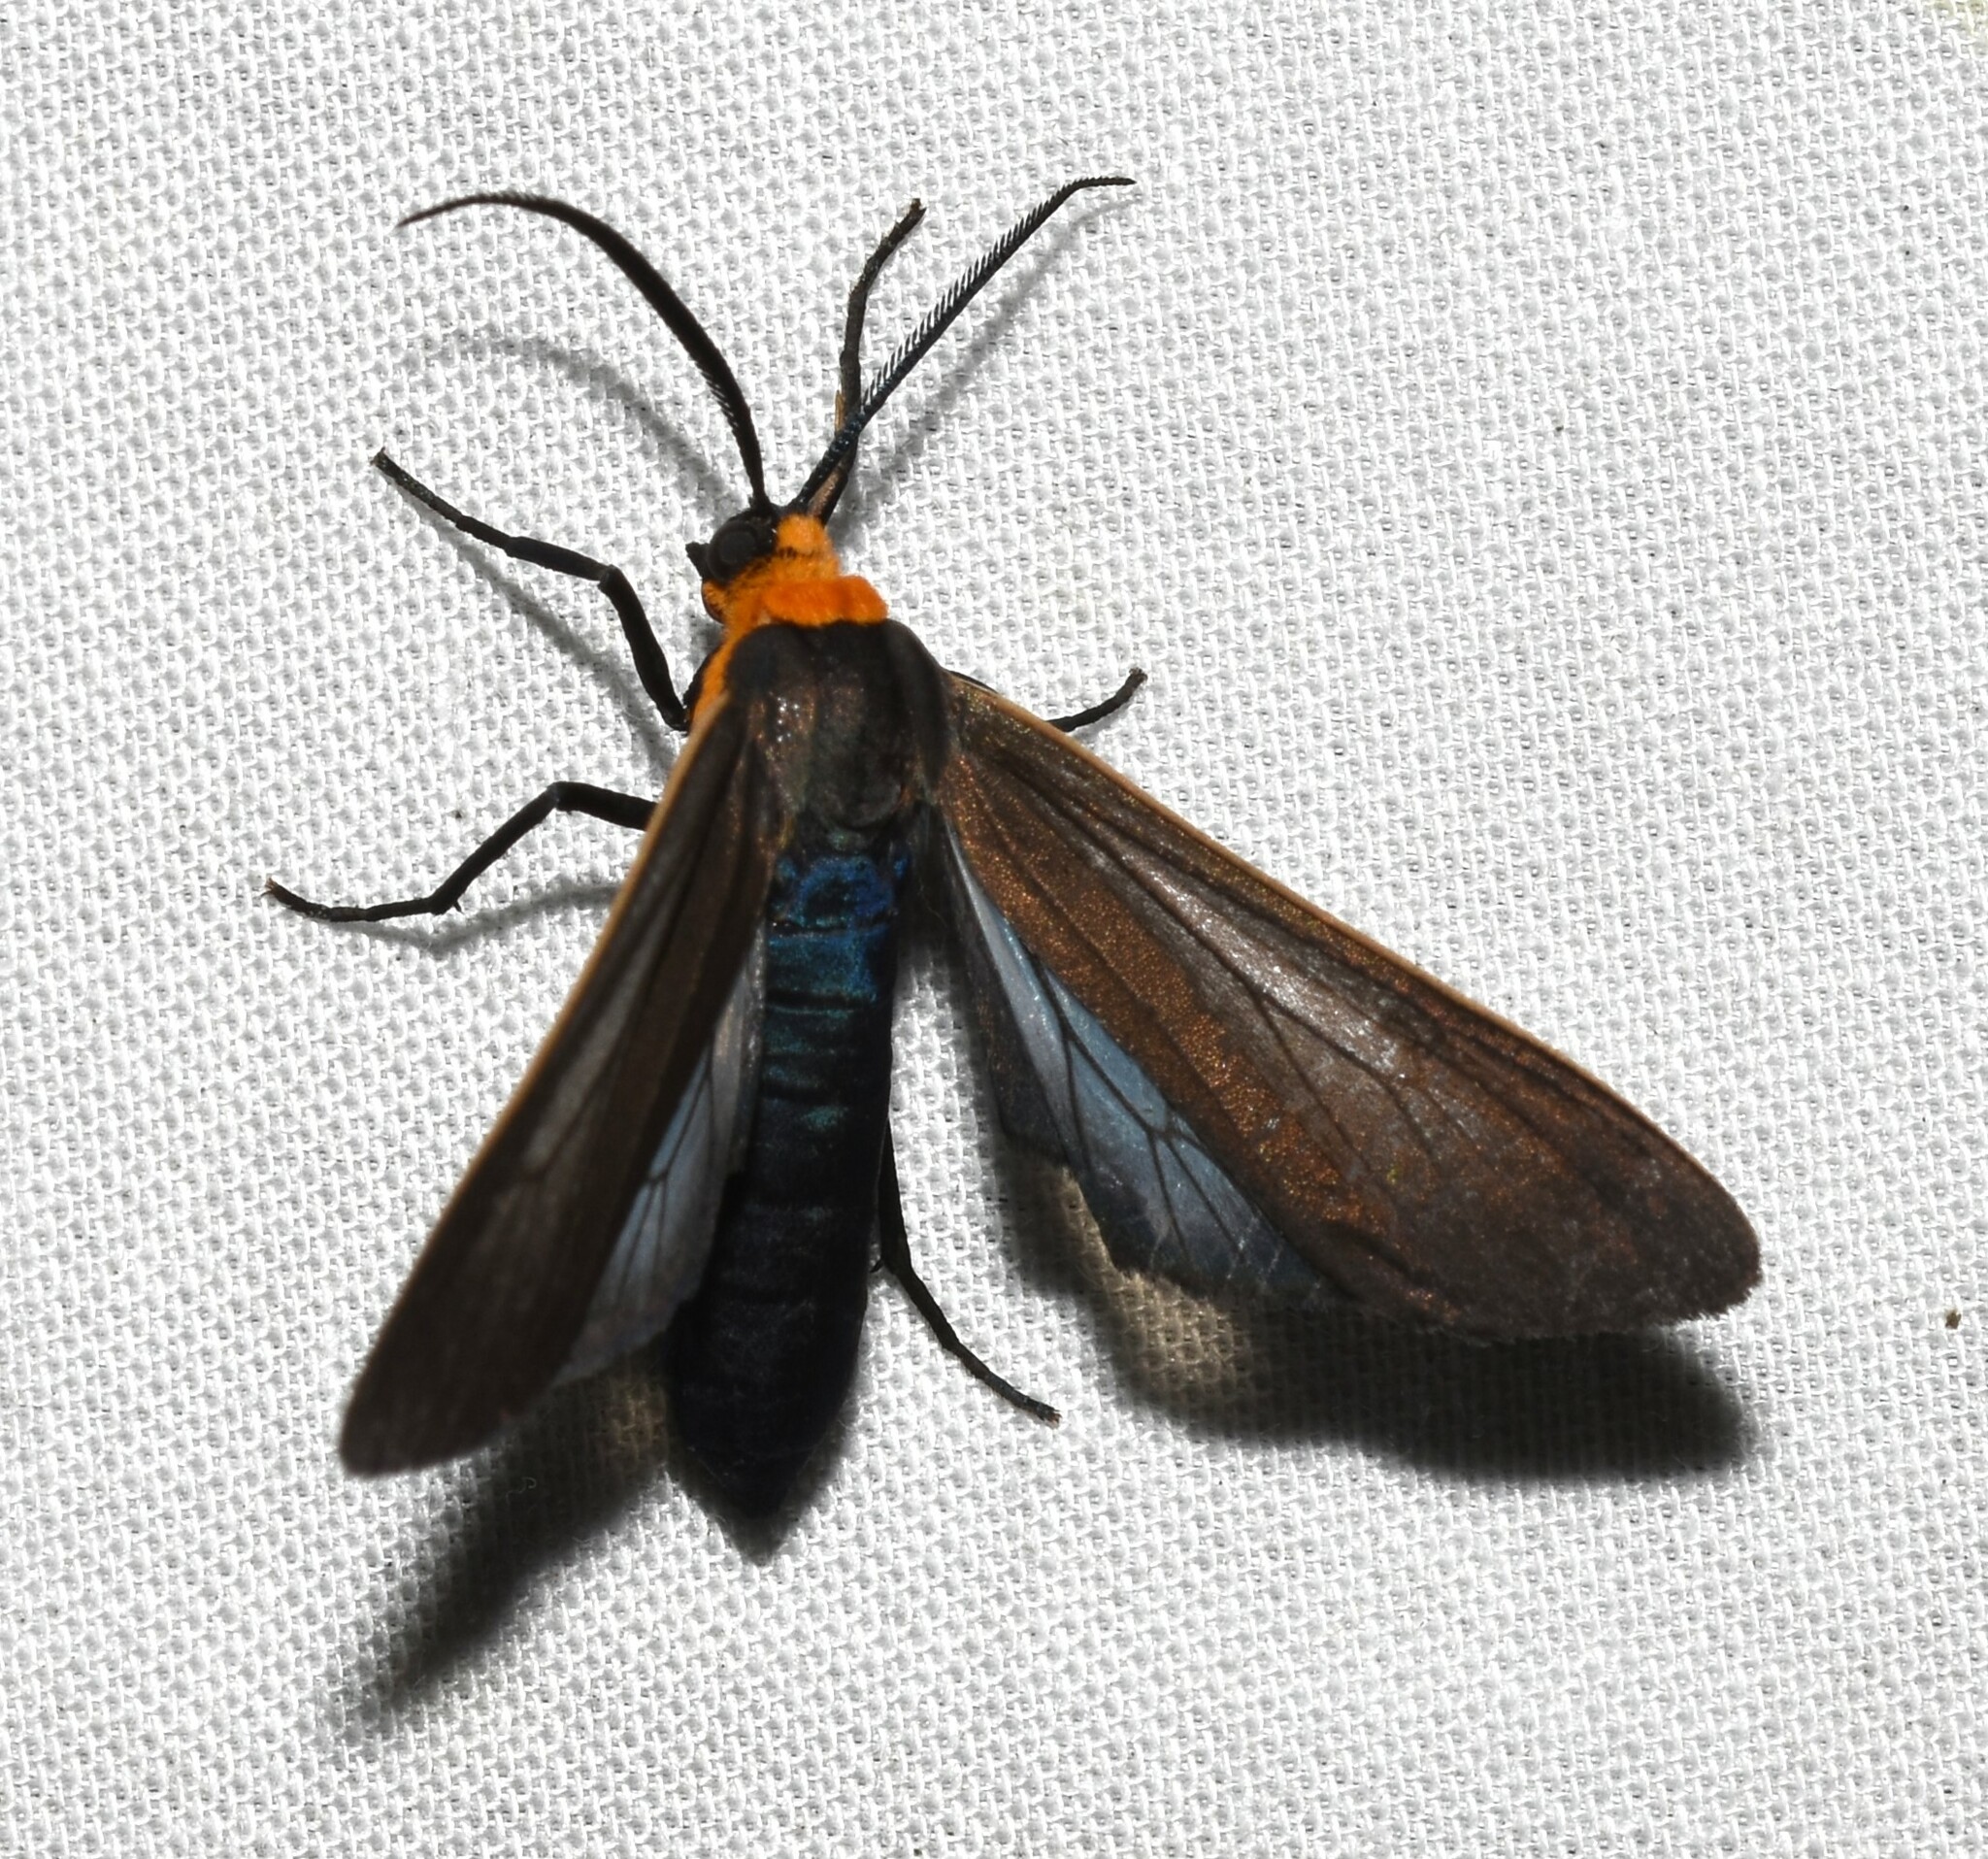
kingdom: Animalia
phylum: Arthropoda
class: Insecta
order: Lepidoptera
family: Erebidae
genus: Cisseps
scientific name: Cisseps fulvicollis
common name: Yellow-collared scape moth
